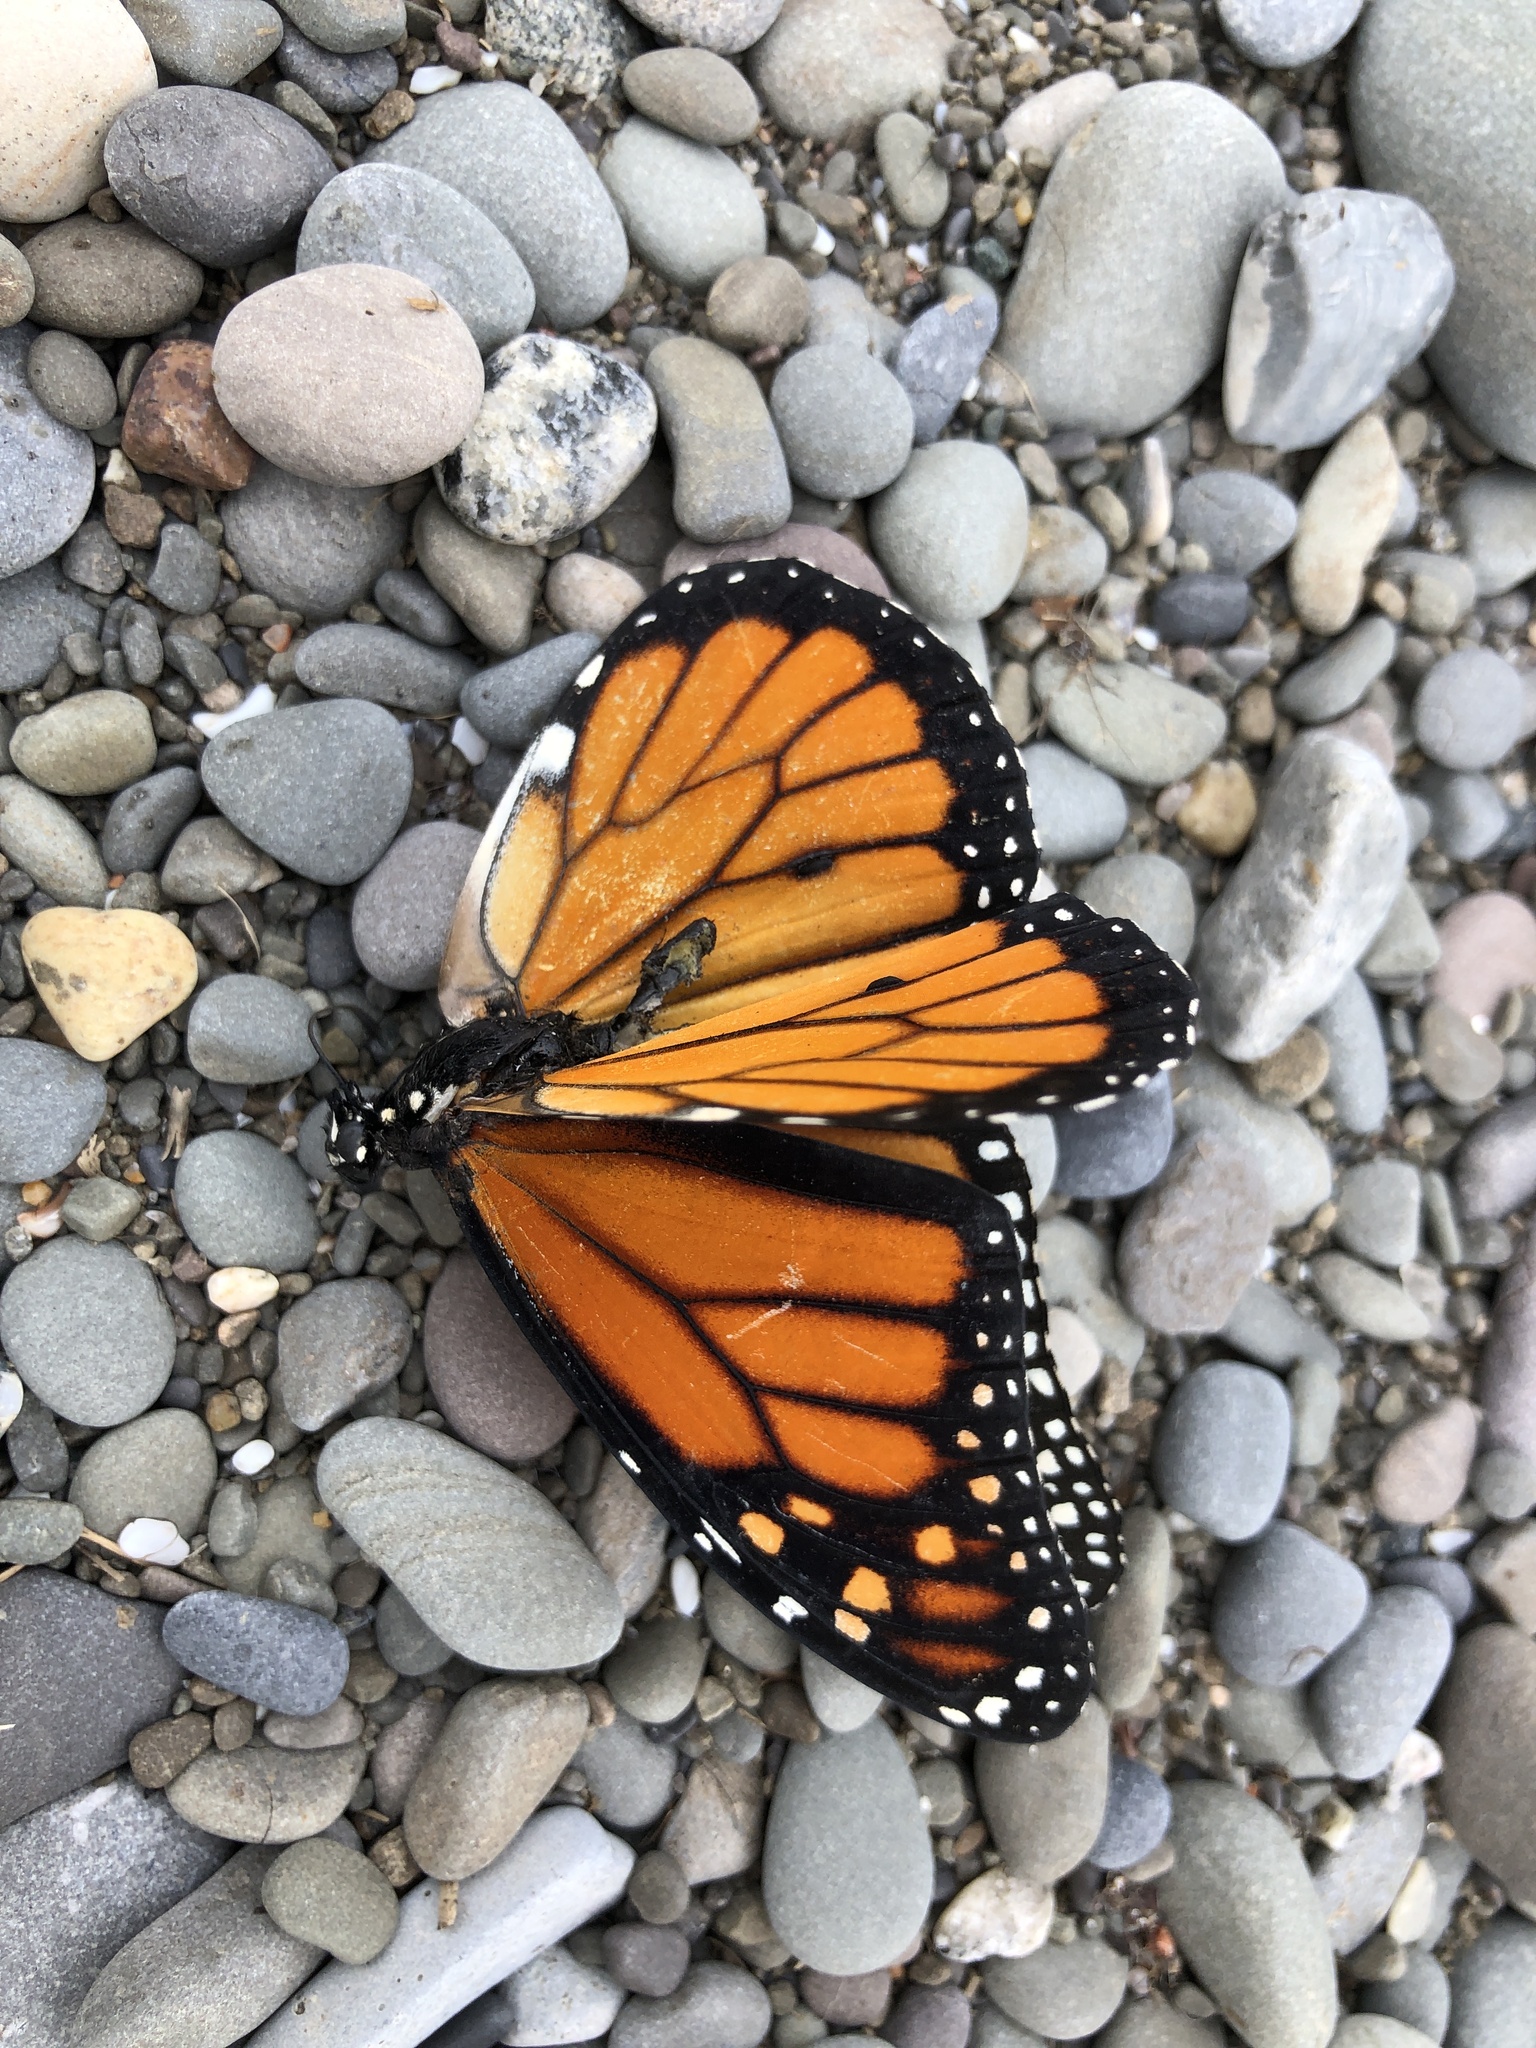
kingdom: Animalia
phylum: Arthropoda
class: Insecta
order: Lepidoptera
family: Nymphalidae
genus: Danaus
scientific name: Danaus plexippus
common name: Monarch
